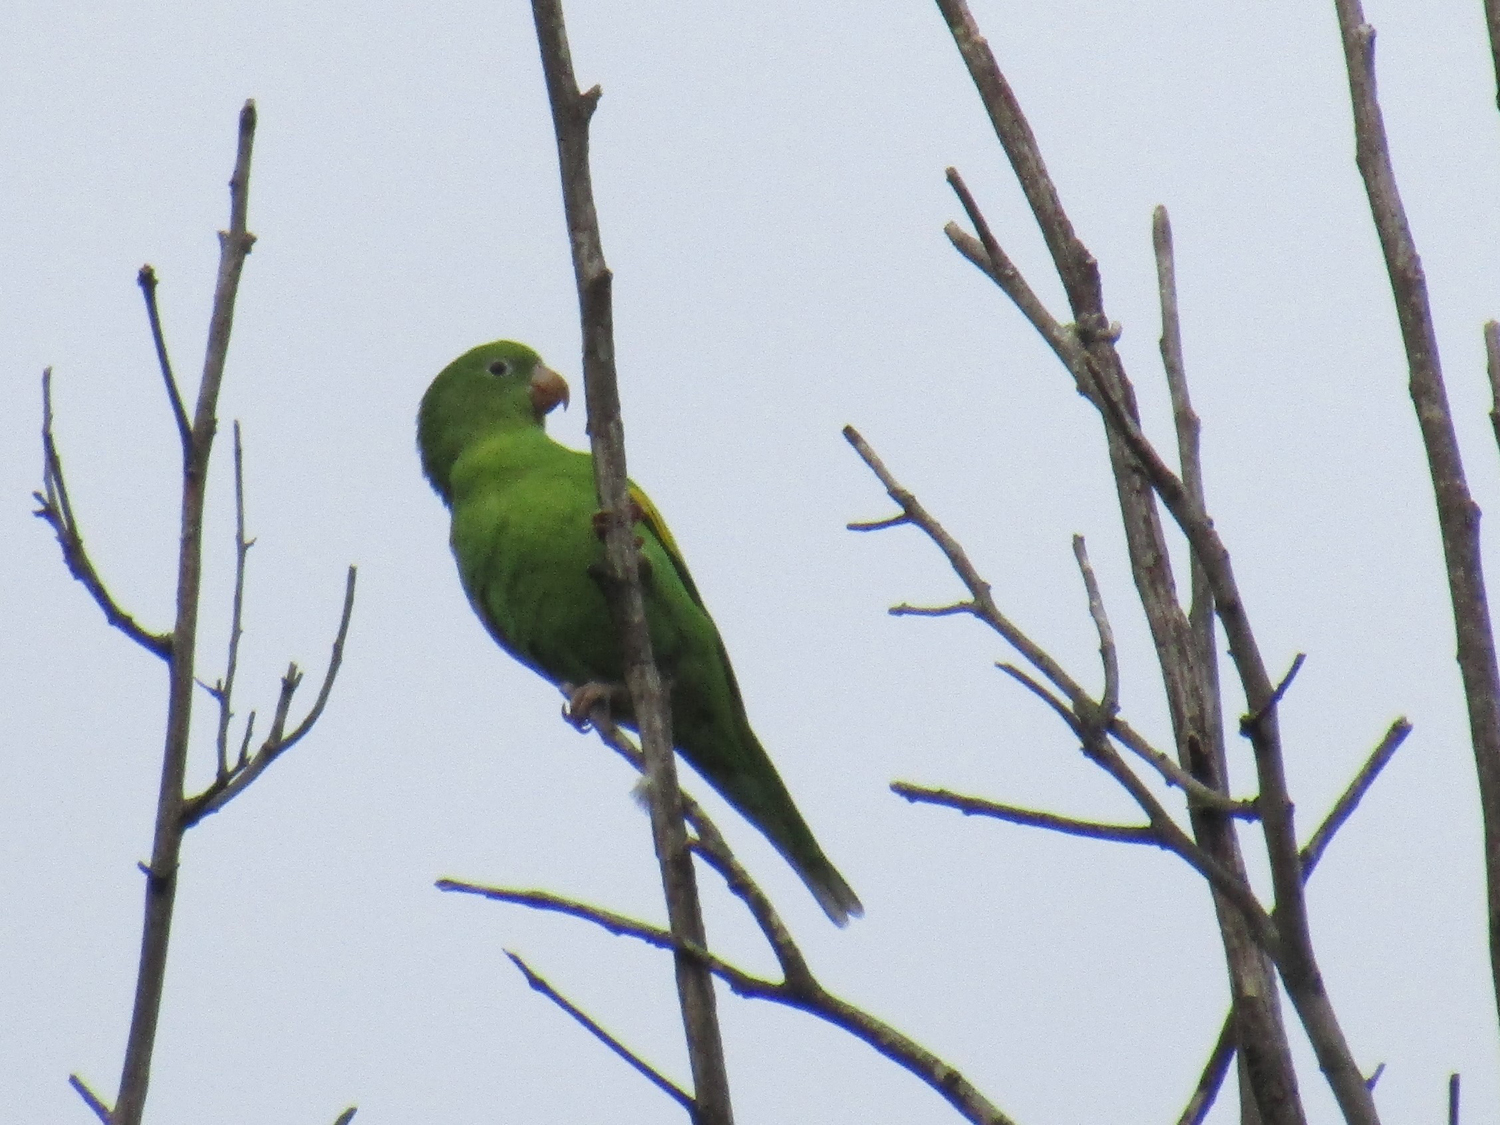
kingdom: Animalia
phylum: Chordata
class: Aves
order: Psittaciformes
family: Psittacidae
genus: Brotogeris
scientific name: Brotogeris chiriri
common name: Yellow-chevroned parakeet
